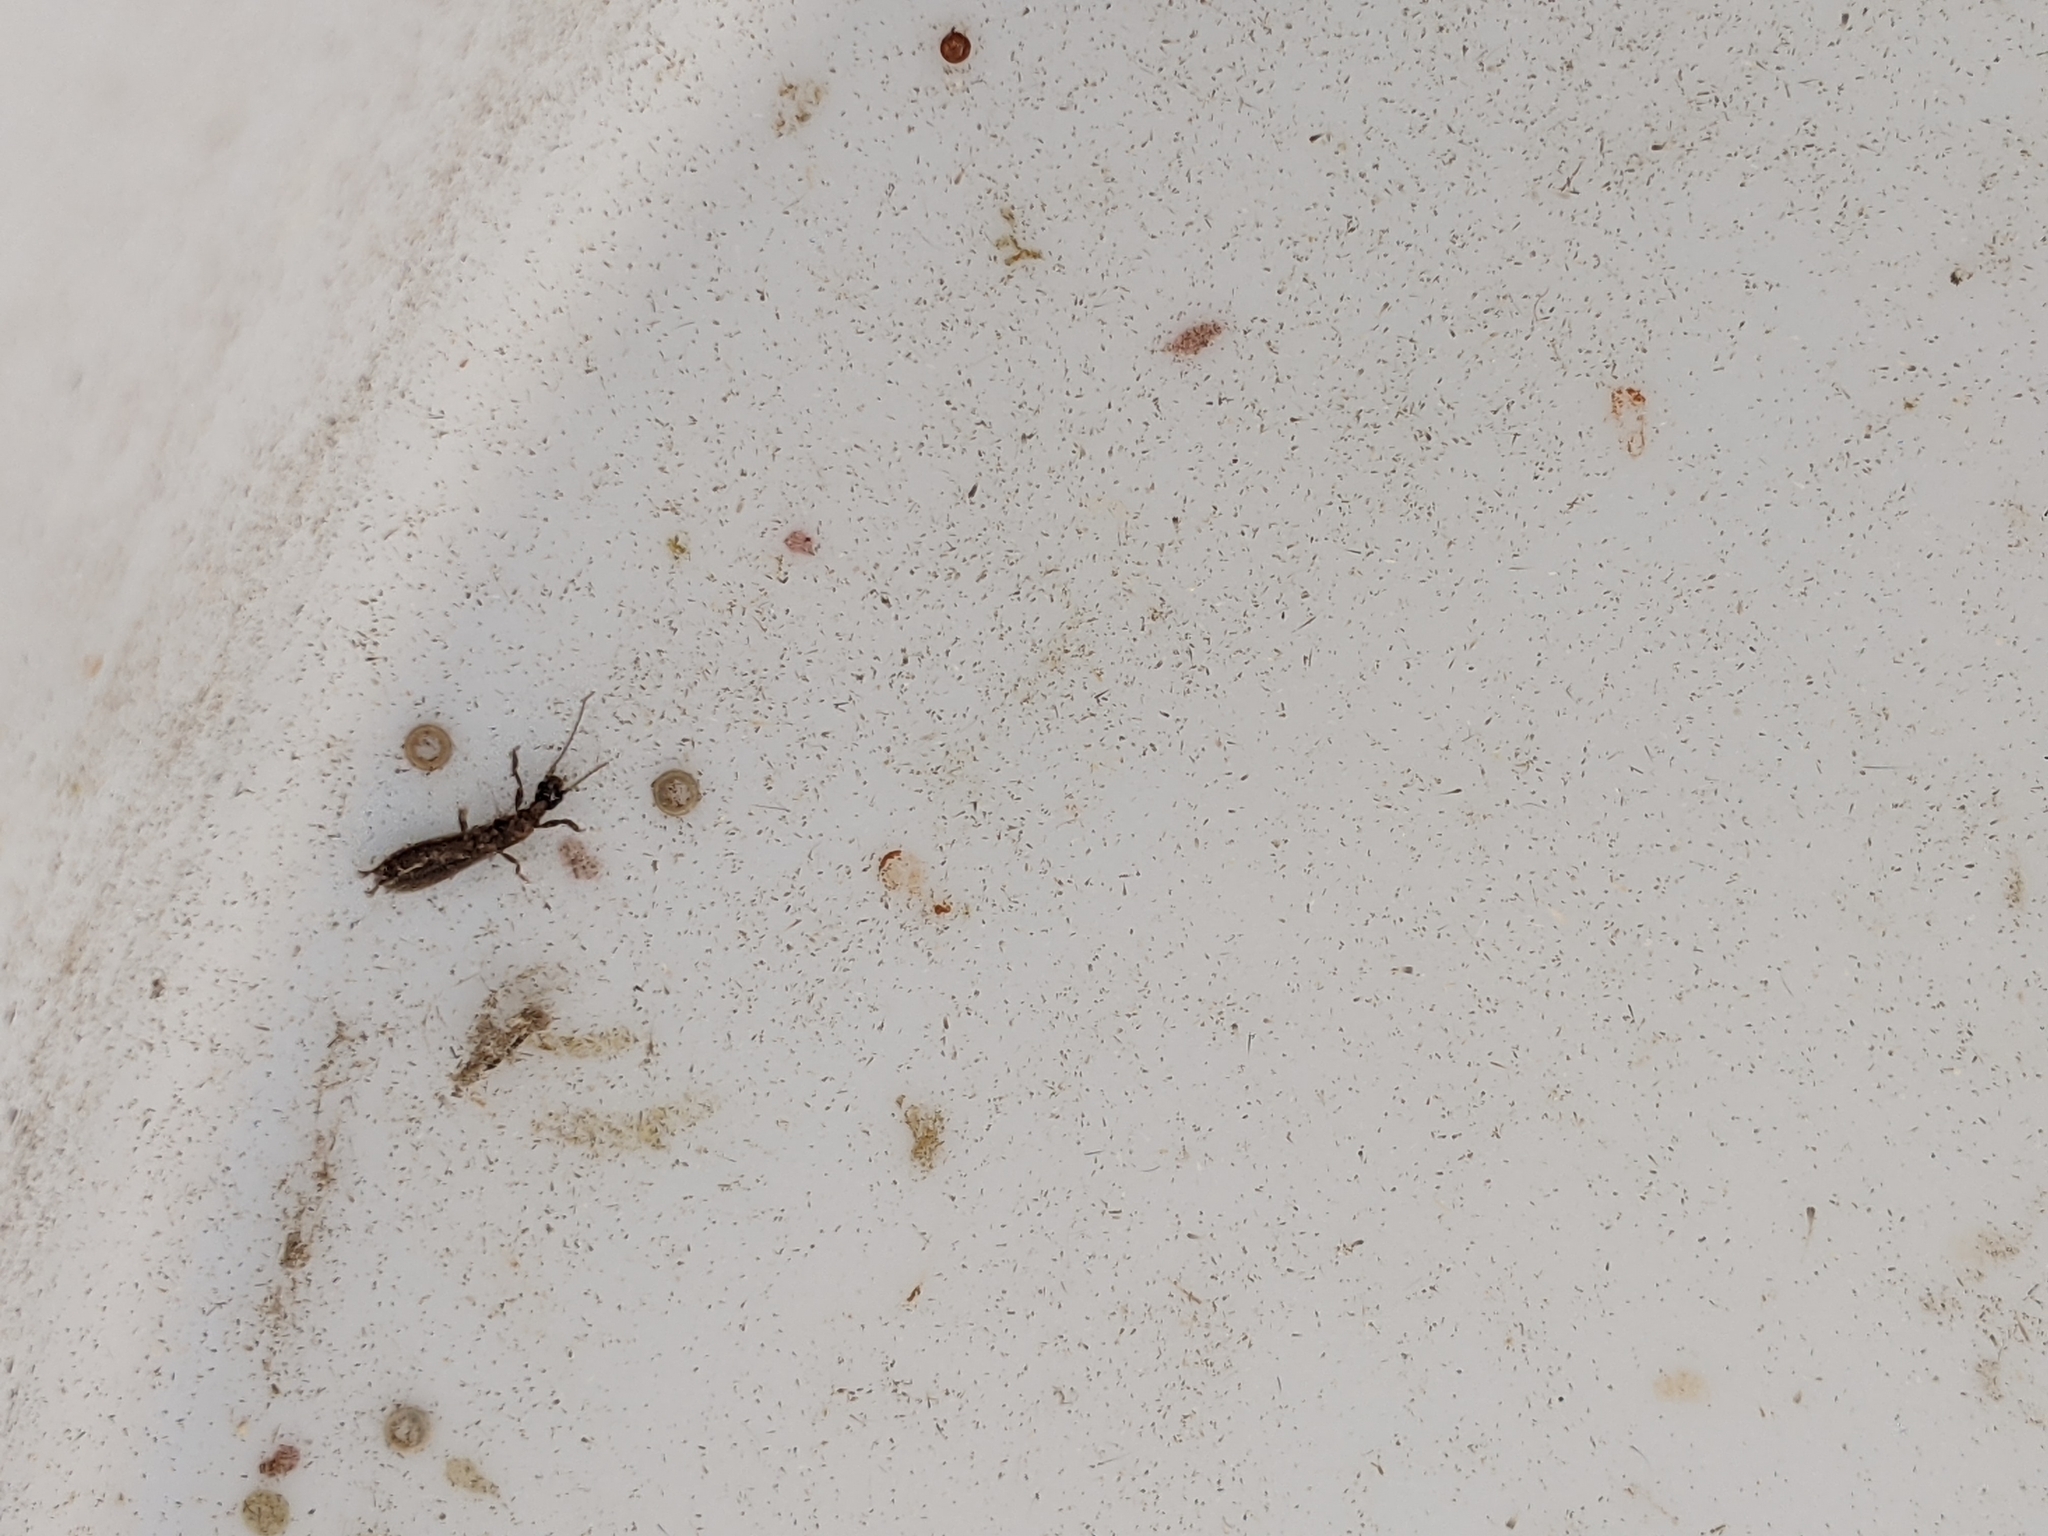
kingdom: Animalia
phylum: Arthropoda
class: Insecta
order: Embioptera
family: Oligotomidae
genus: Oligotoma
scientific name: Oligotoma nigra
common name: Black webspinner
